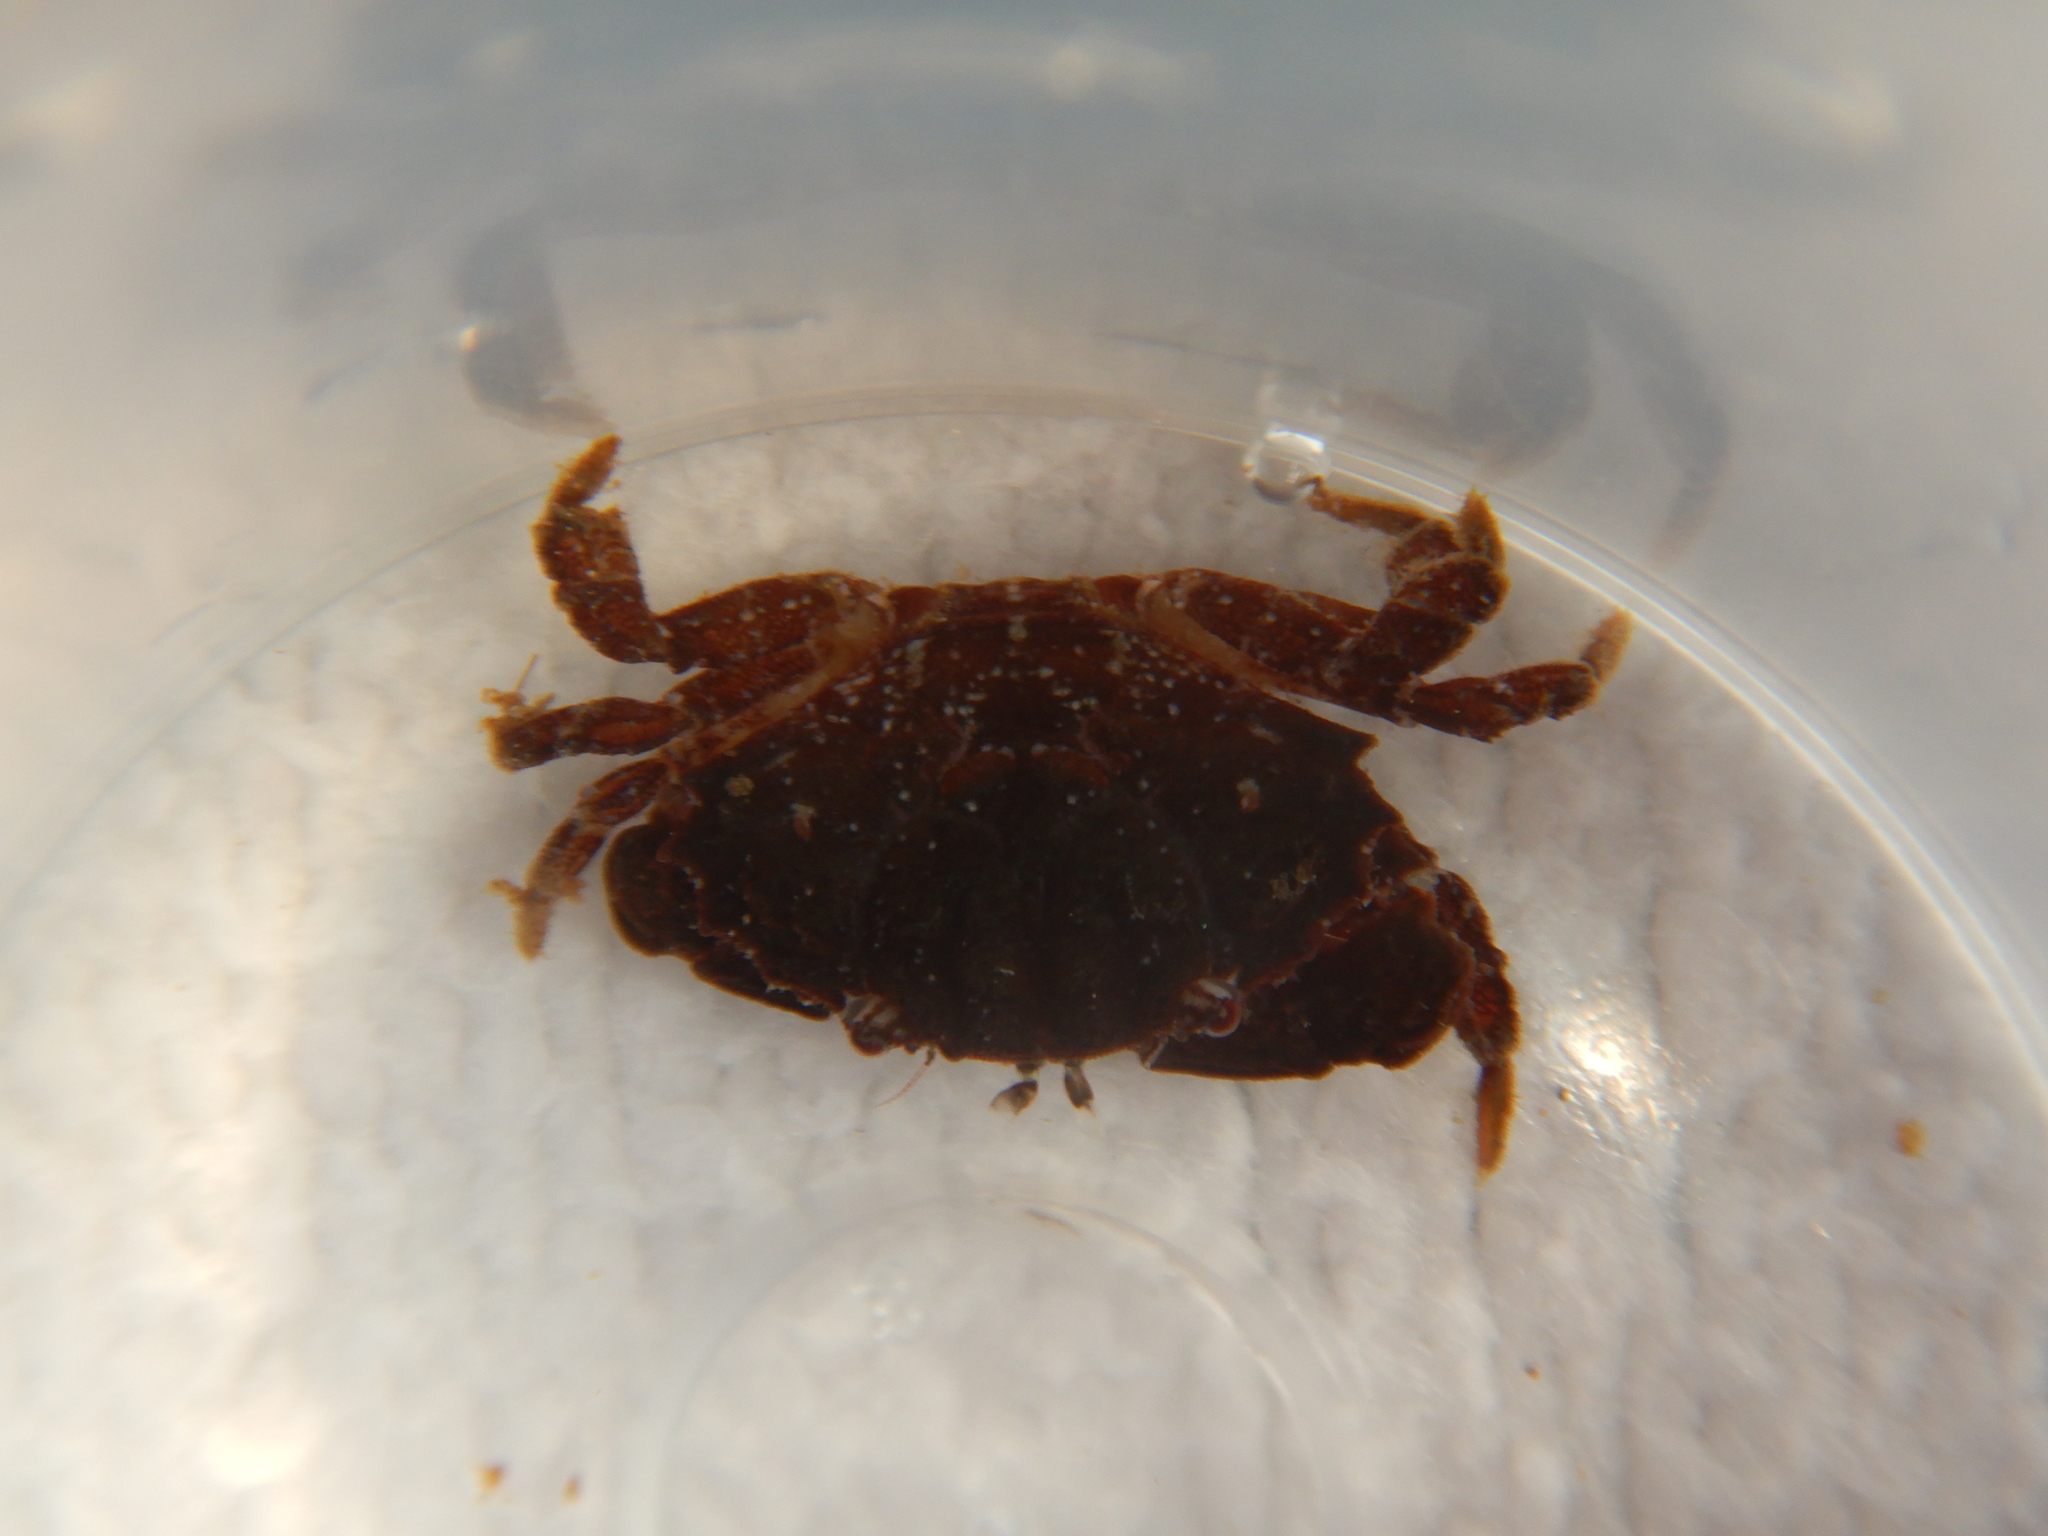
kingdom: Animalia
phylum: Arthropoda
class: Malacostraca
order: Decapoda
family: Xanthidae
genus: Xantho
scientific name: Xantho poressa
